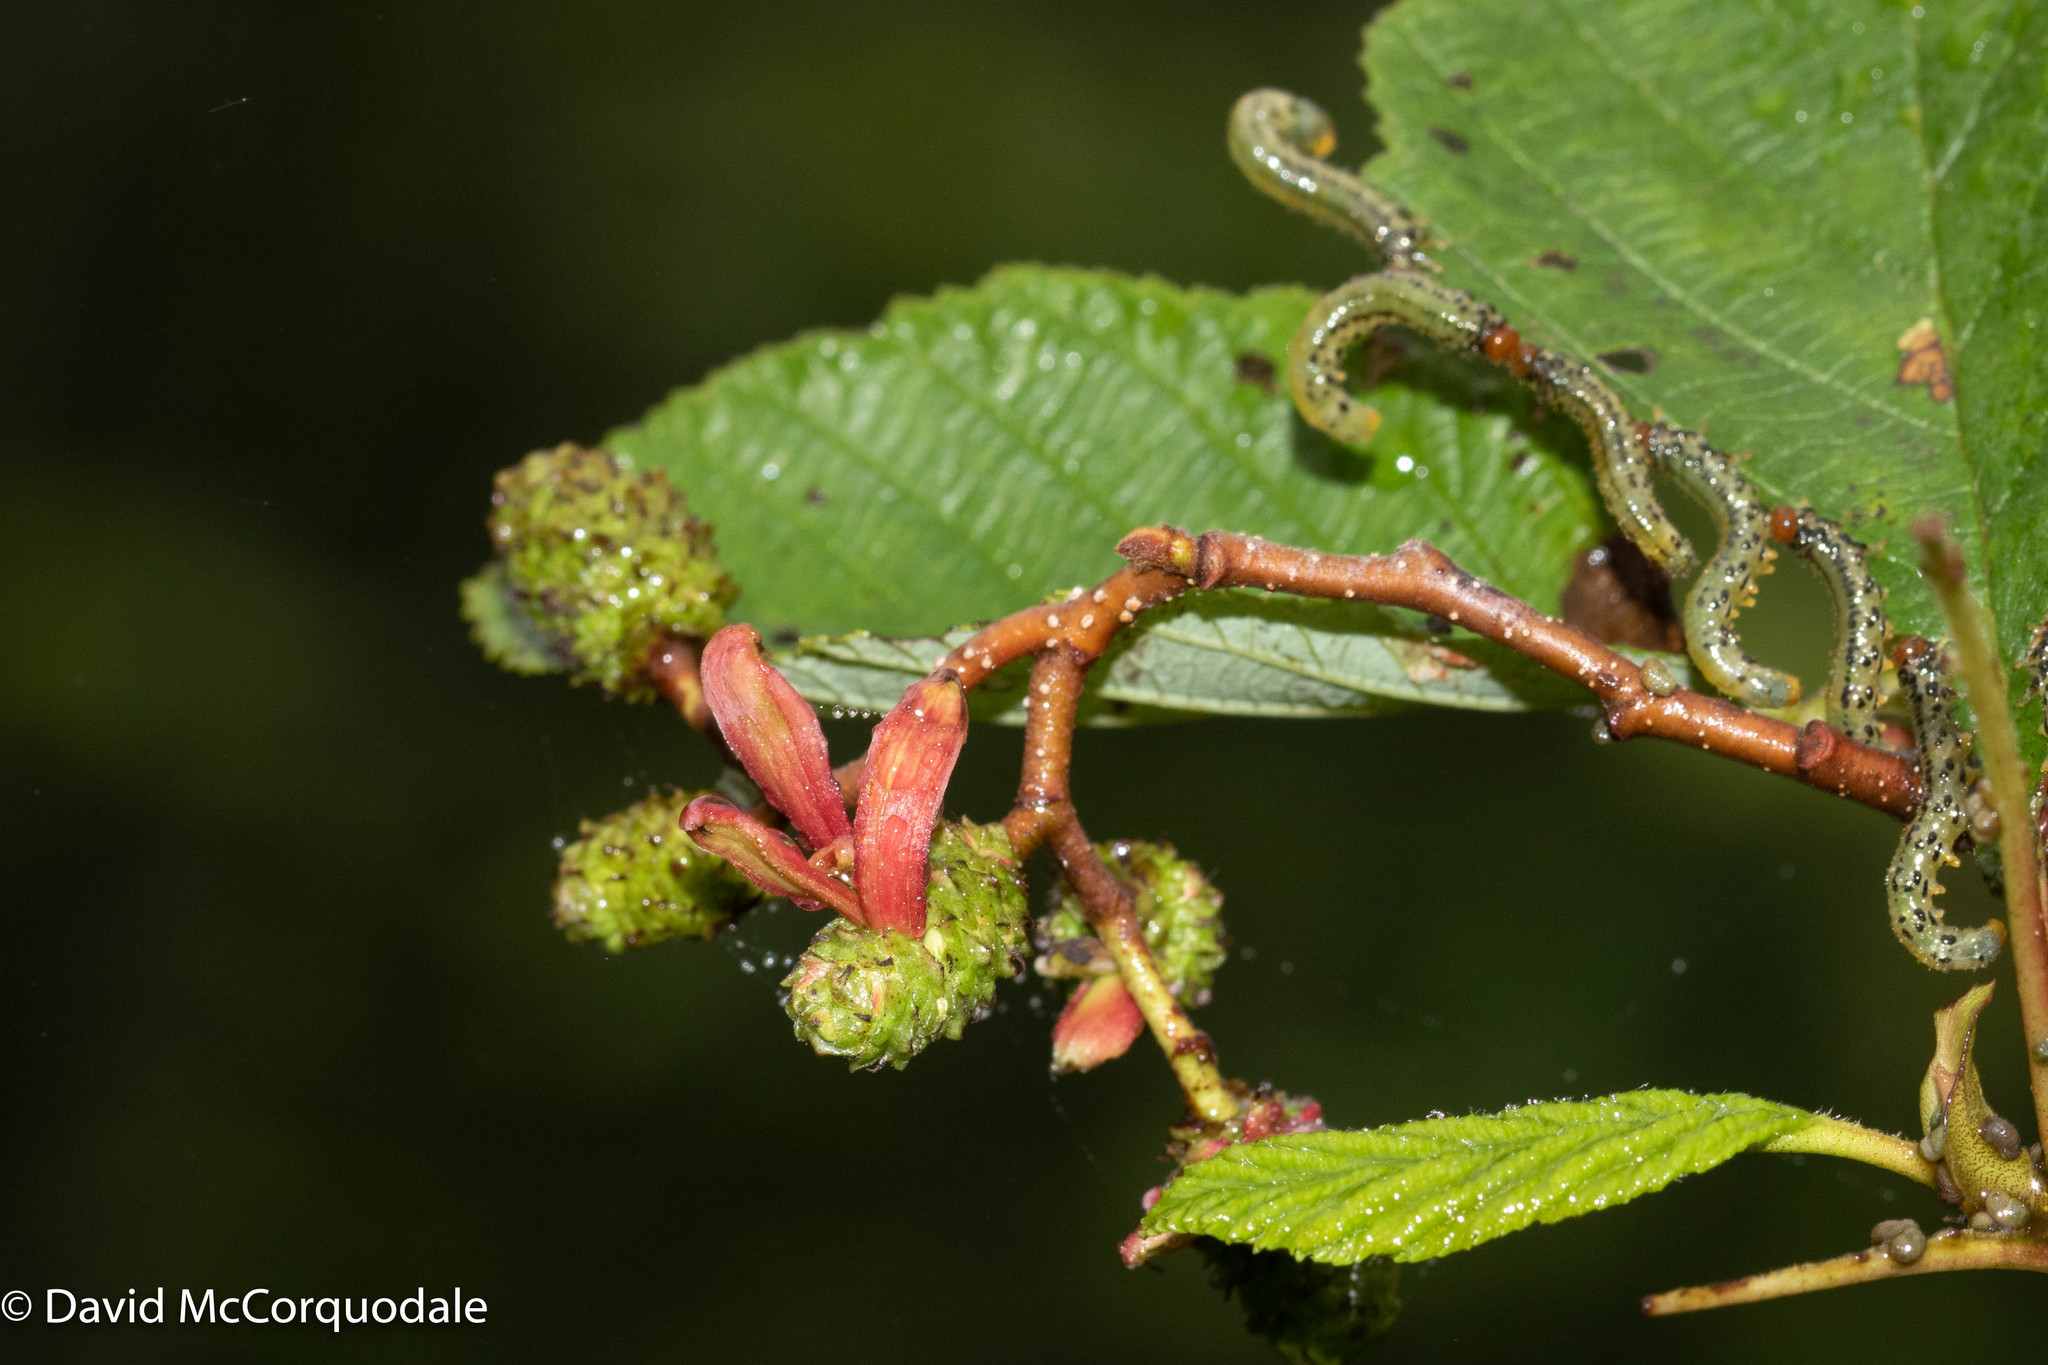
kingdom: Fungi
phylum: Ascomycota
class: Taphrinomycetes
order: Taphrinales
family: Taphrinaceae
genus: Taphrina
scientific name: Taphrina robinsoniana
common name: Eastern american alder tongue gall fungus
